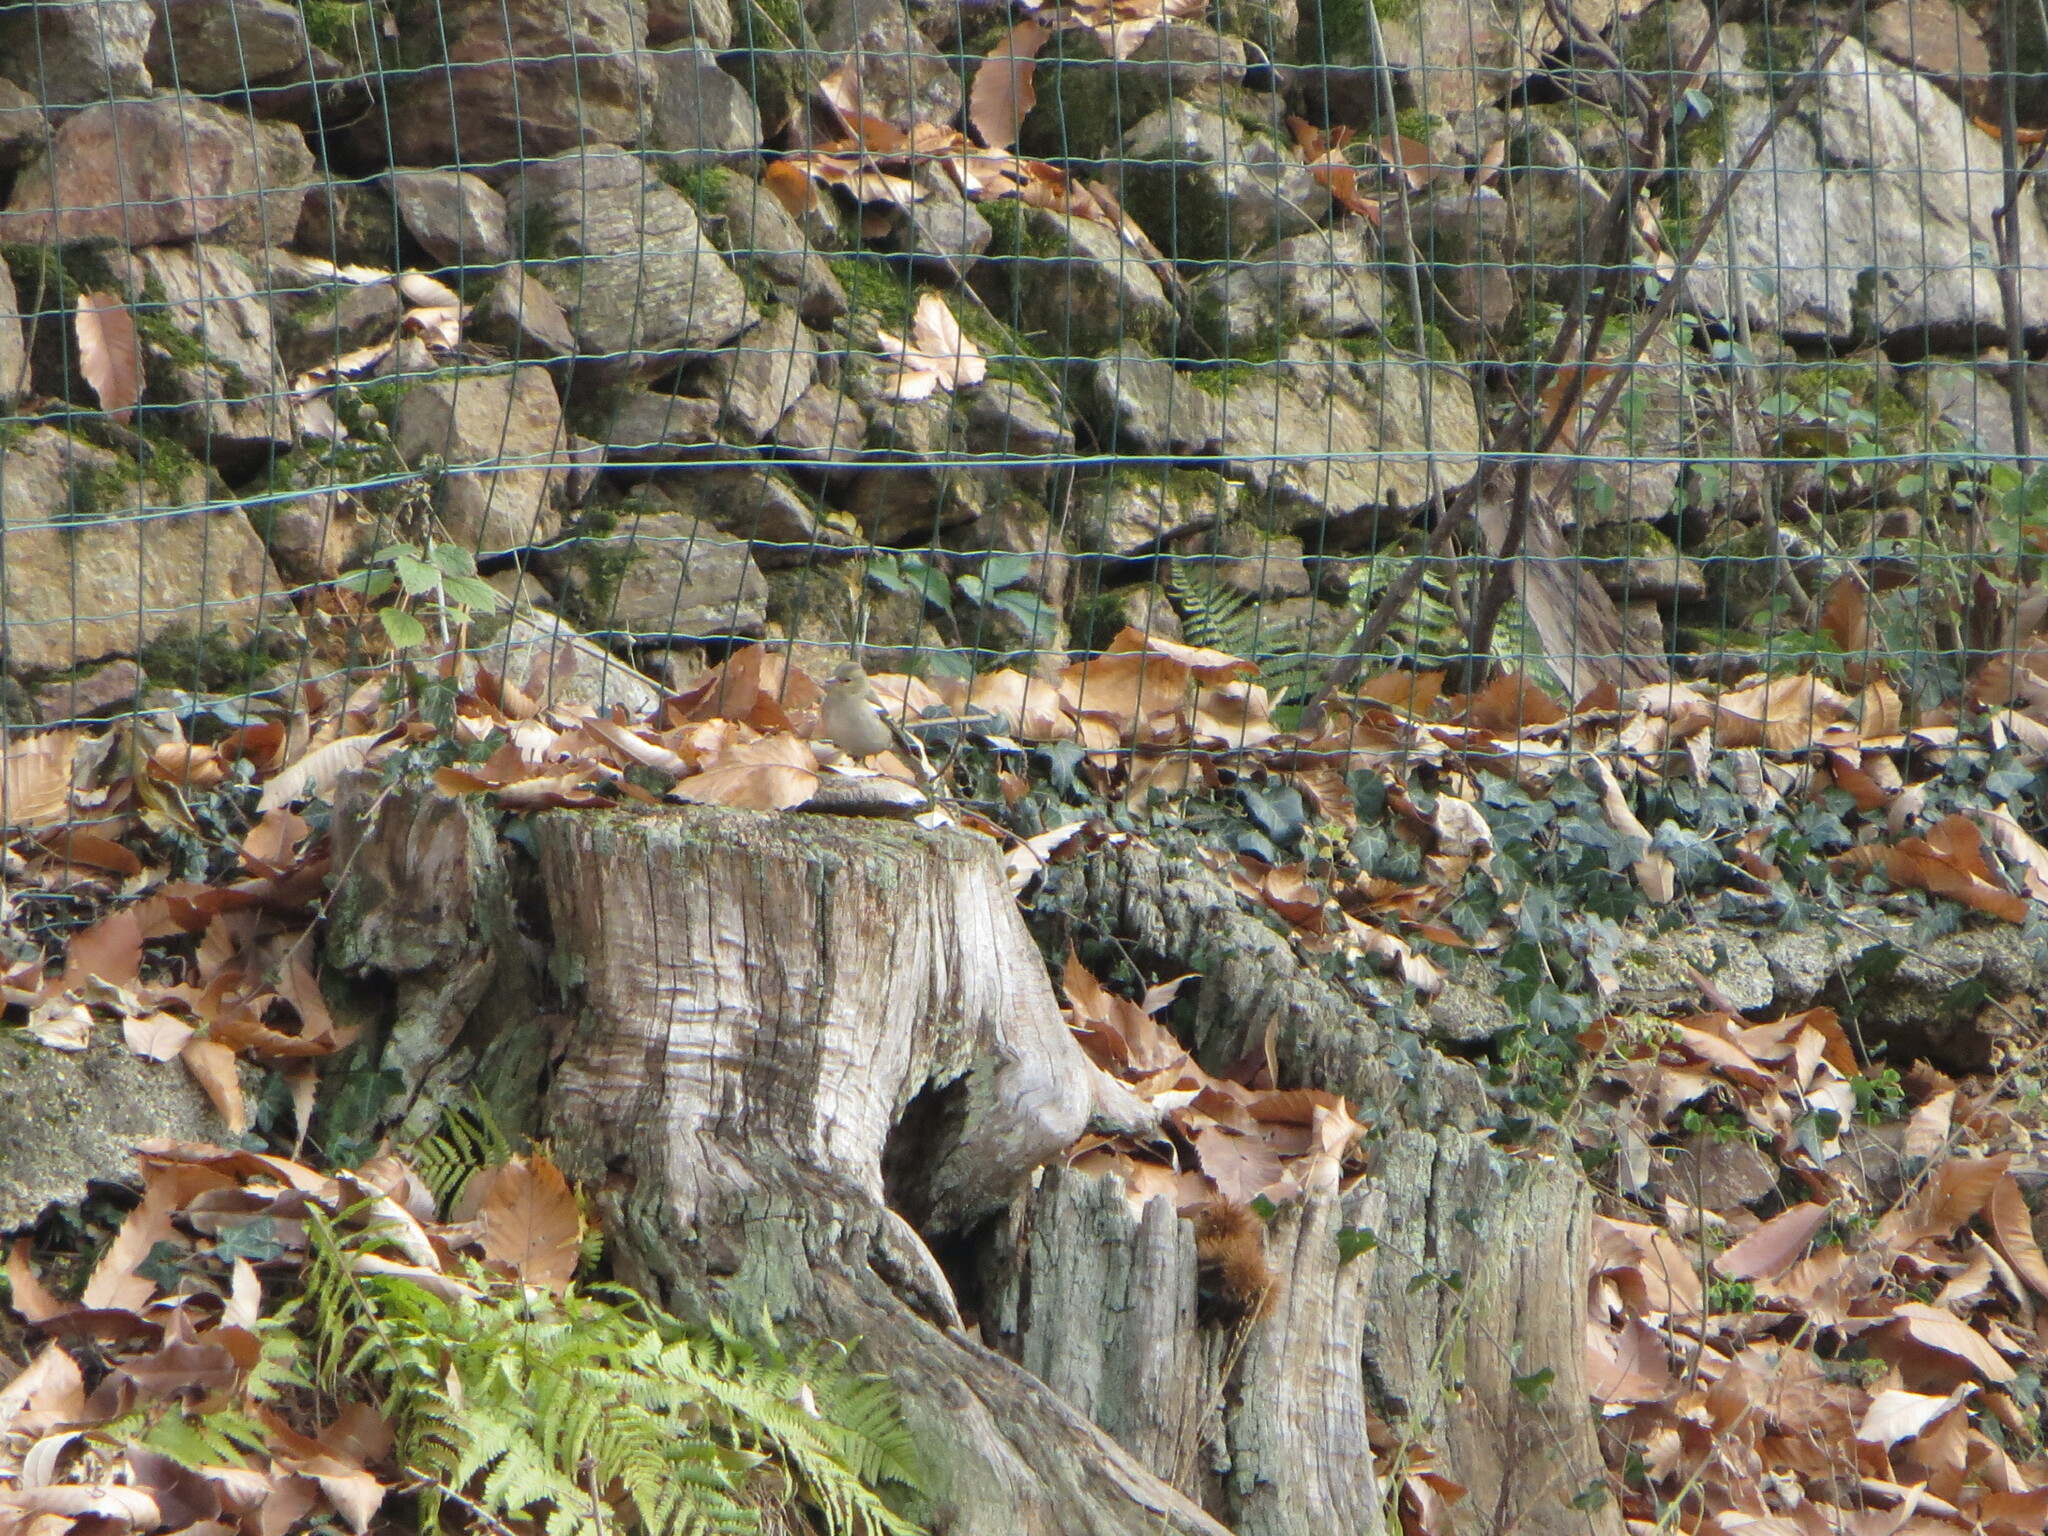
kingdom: Animalia
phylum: Chordata
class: Aves
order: Passeriformes
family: Fringillidae
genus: Fringilla
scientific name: Fringilla coelebs
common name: Common chaffinch
